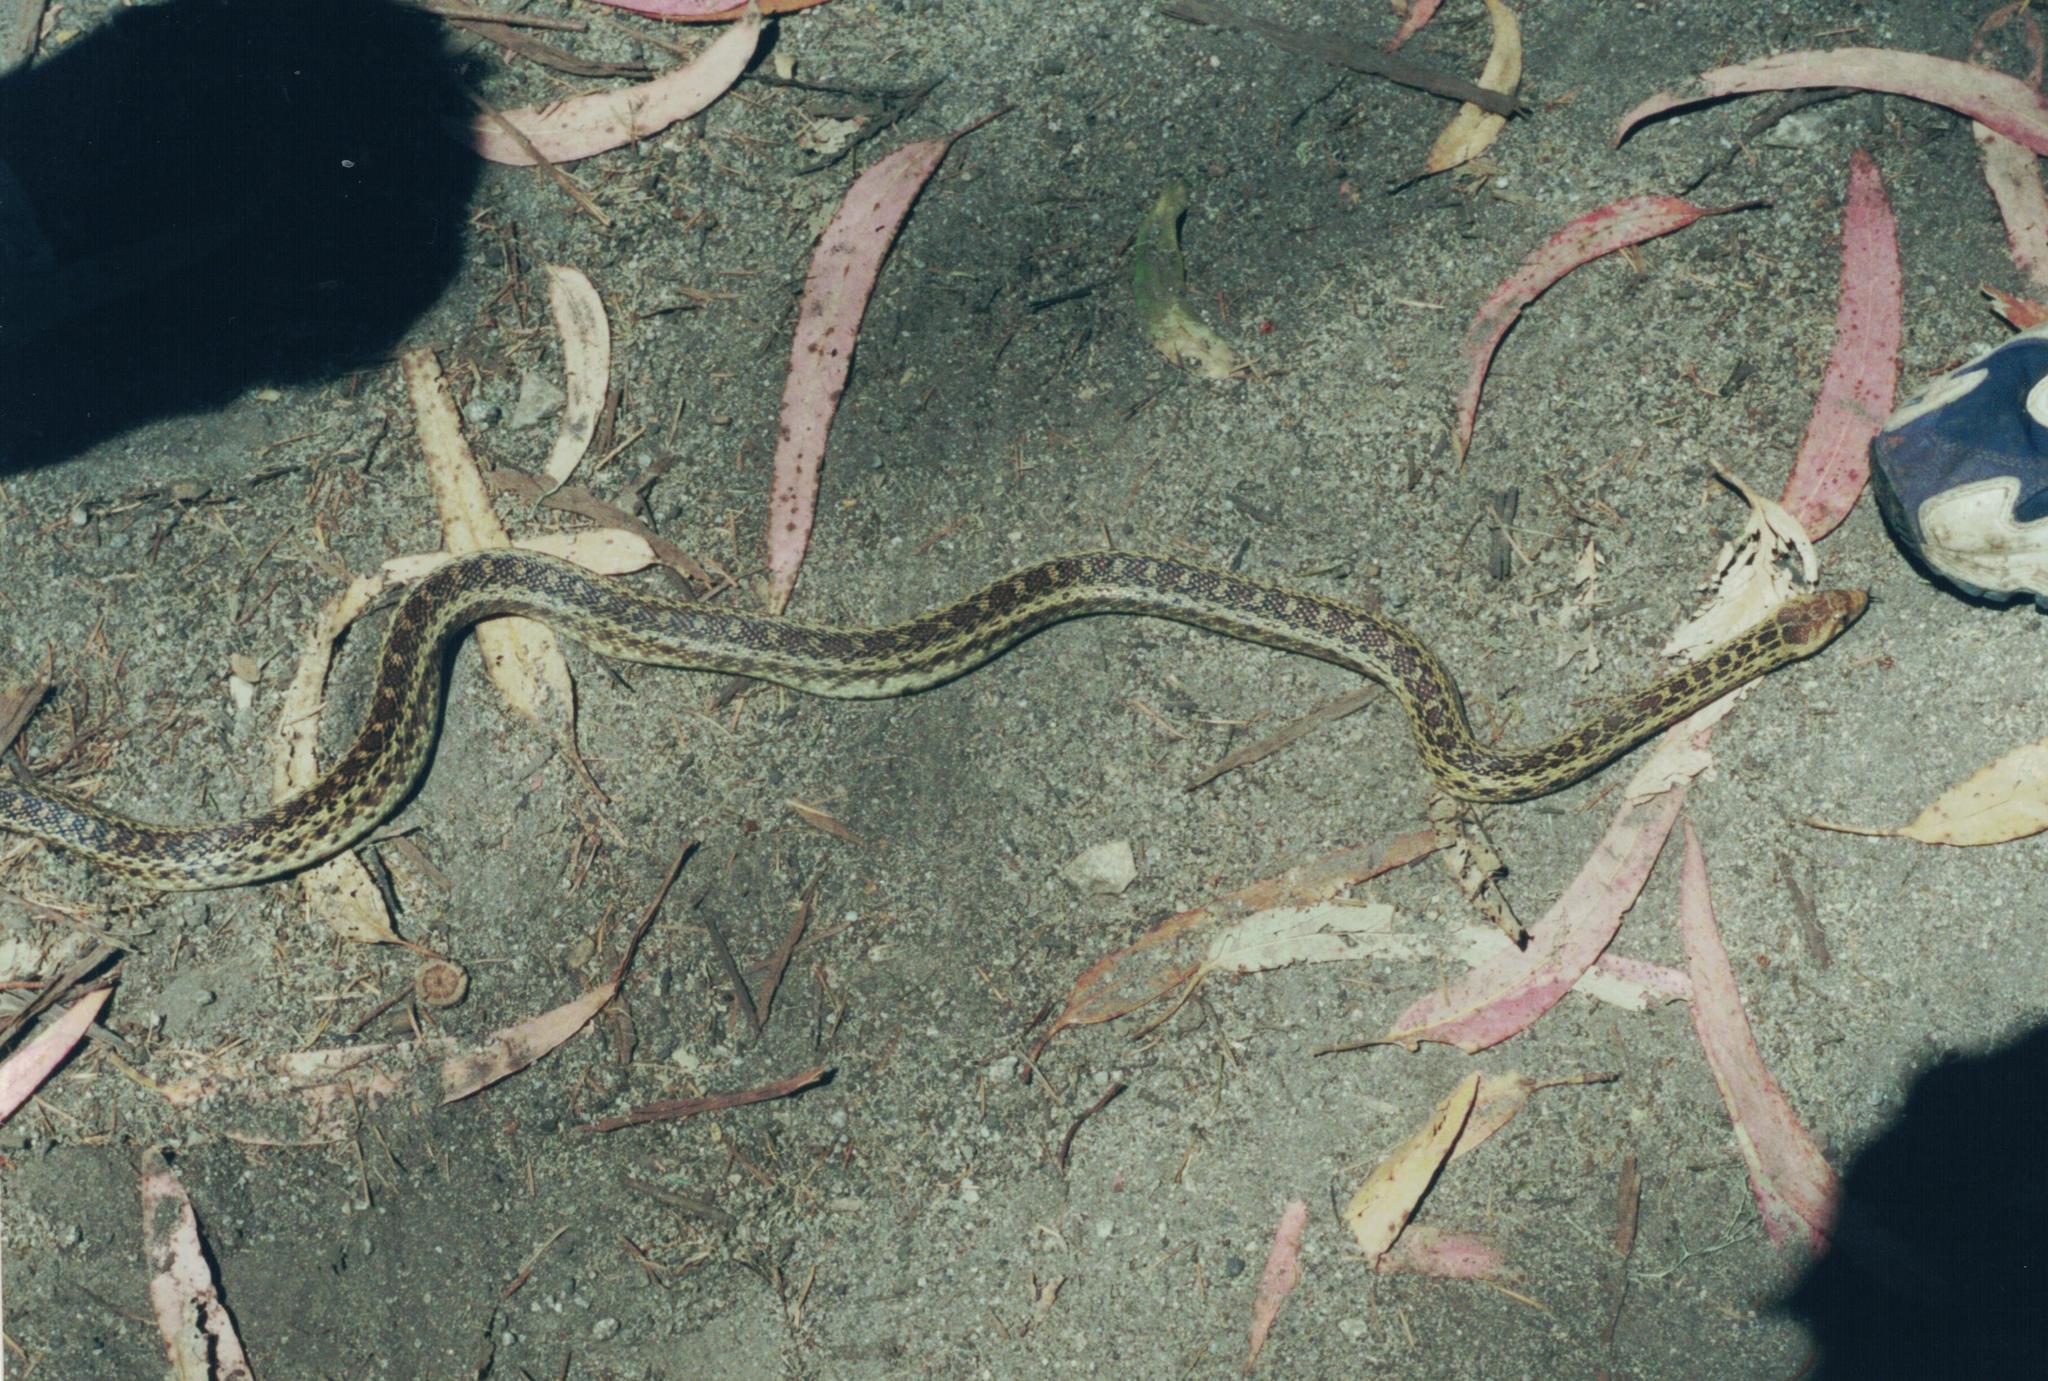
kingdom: Animalia
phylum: Chordata
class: Squamata
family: Colubridae
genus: Pituophis
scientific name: Pituophis catenifer
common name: Gopher snake
